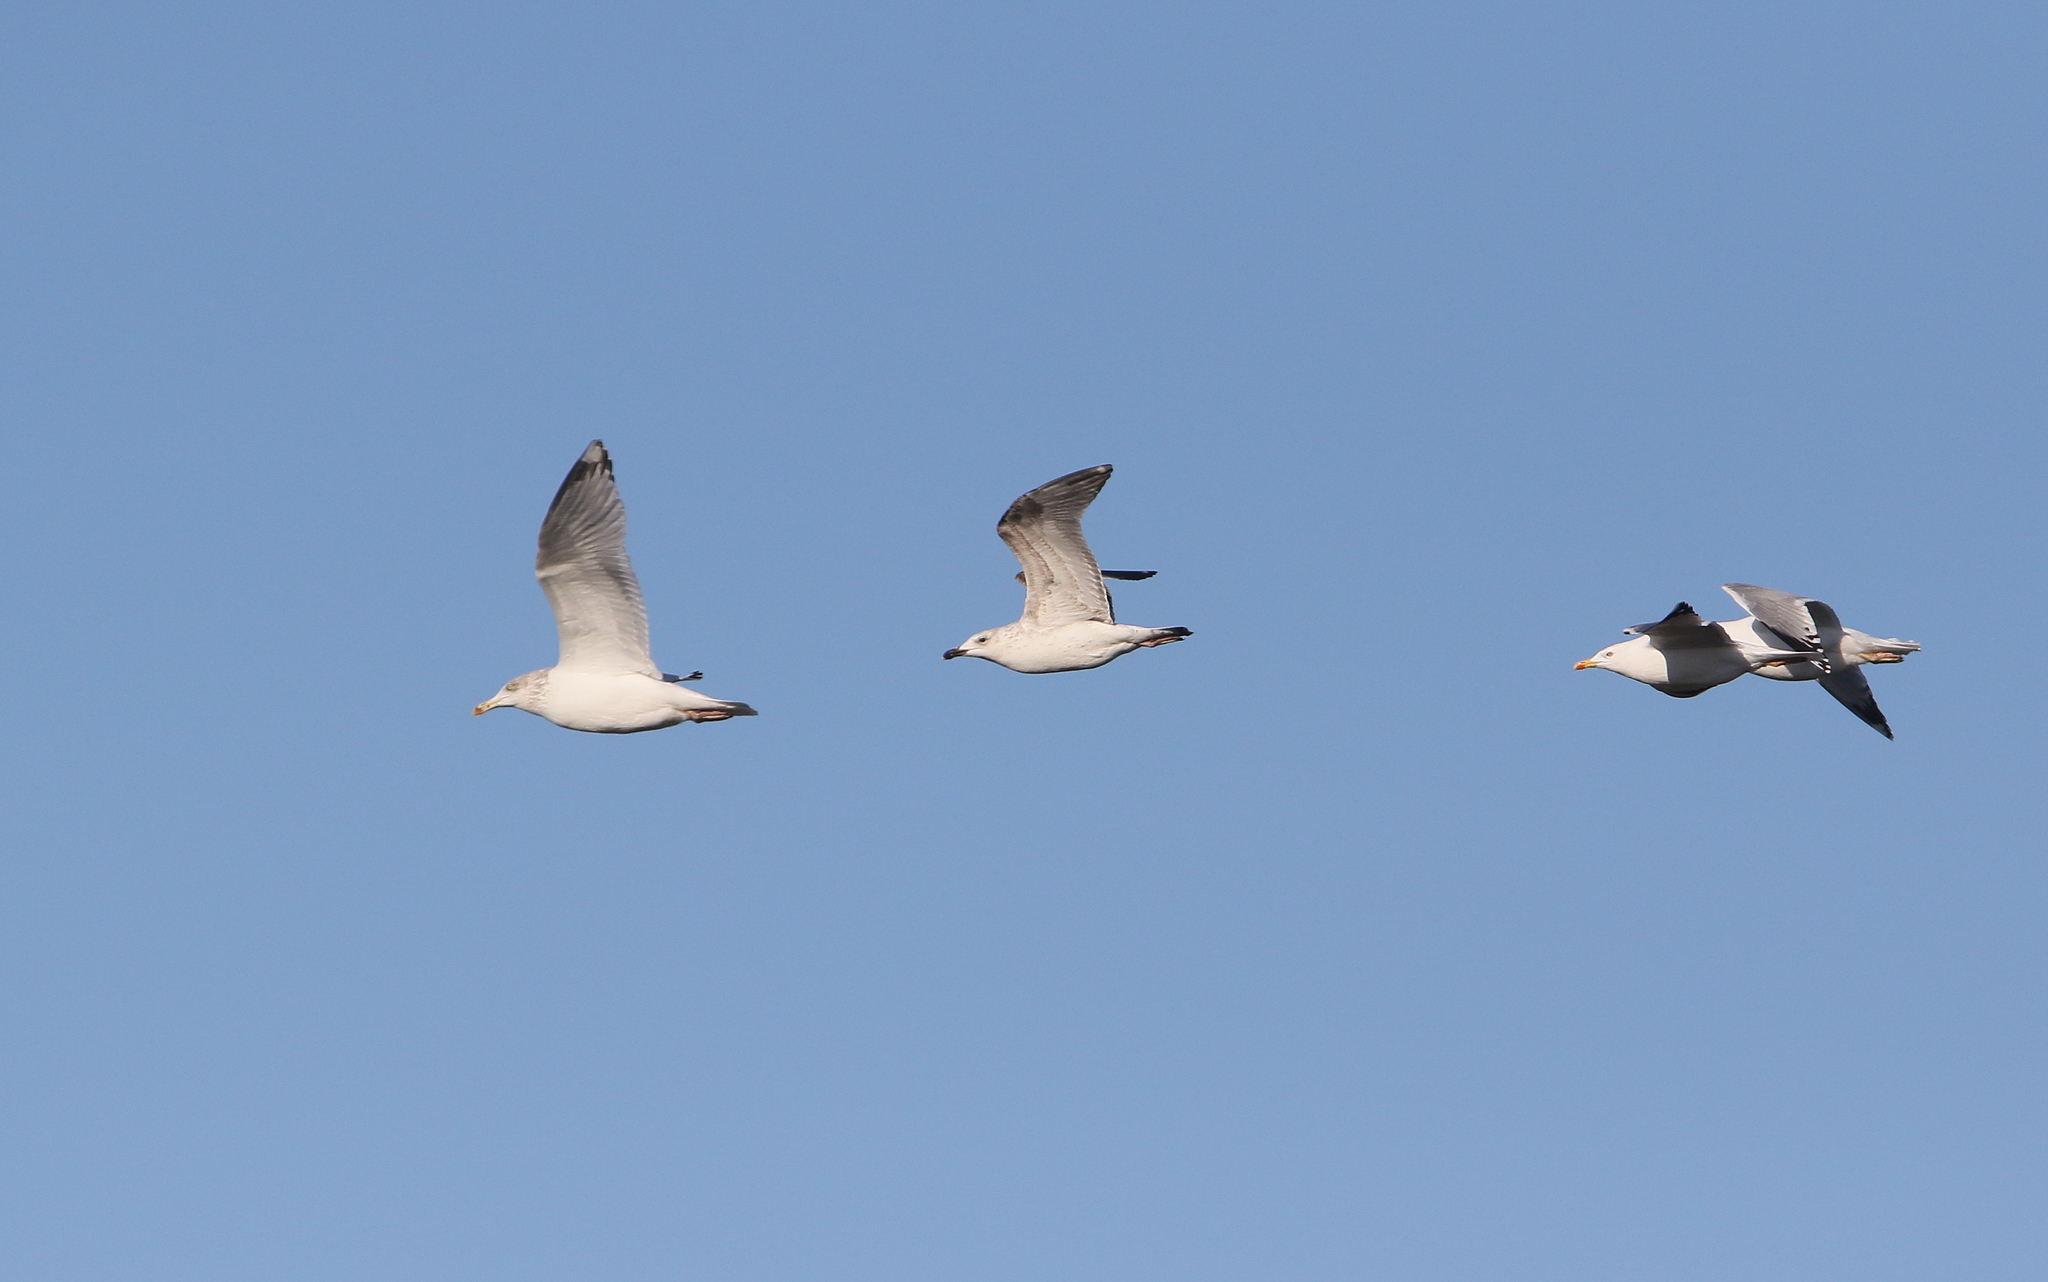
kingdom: Animalia
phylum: Chordata
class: Aves
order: Charadriiformes
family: Laridae
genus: Larus
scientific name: Larus argentatus
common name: Herring gull
